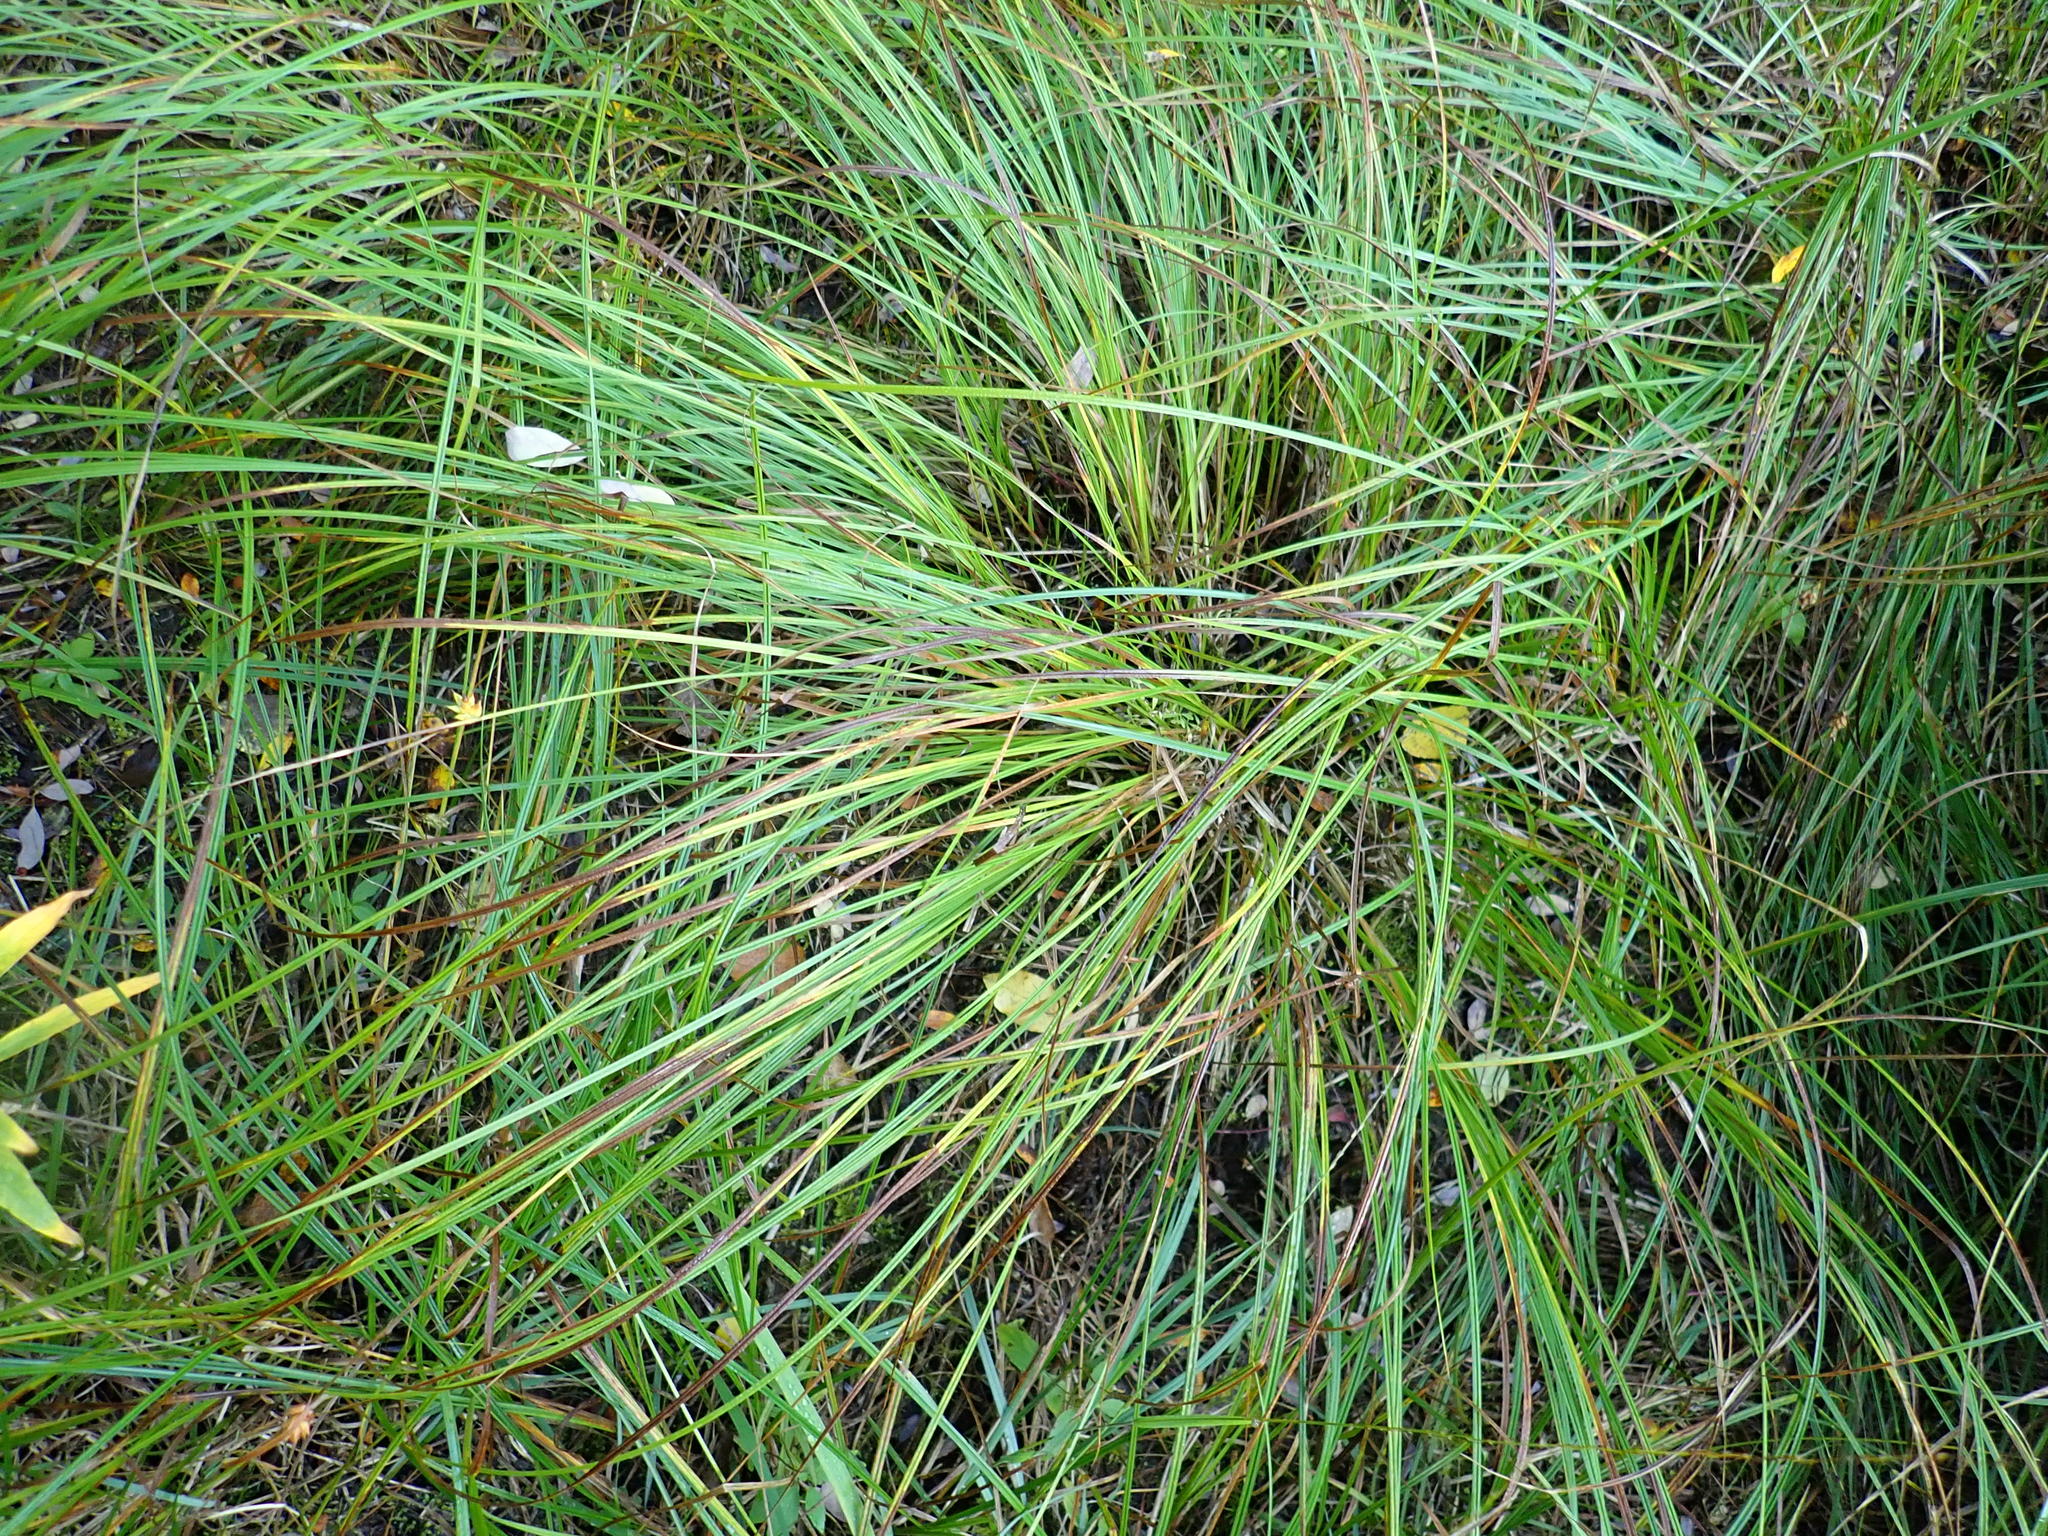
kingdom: Plantae
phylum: Tracheophyta
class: Liliopsida
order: Poales
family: Cyperaceae
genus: Carex
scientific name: Carex vesicaria
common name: Bladder-sedge
